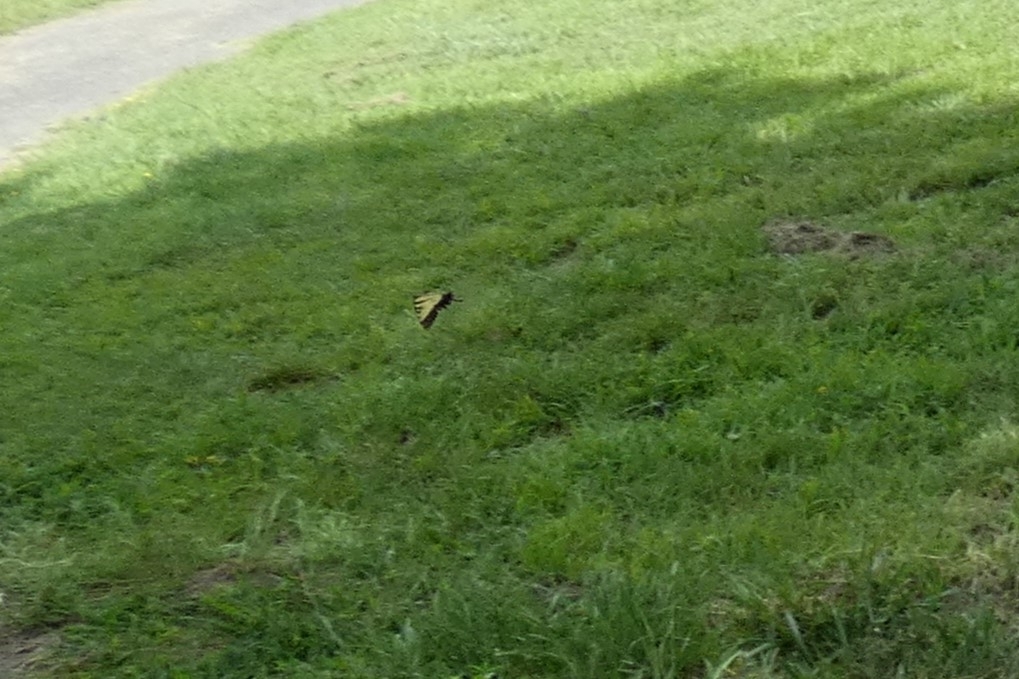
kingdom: Animalia
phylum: Arthropoda
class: Insecta
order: Lepidoptera
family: Papilionidae
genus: Papilio
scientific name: Papilio glaucus
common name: Tiger swallowtail
